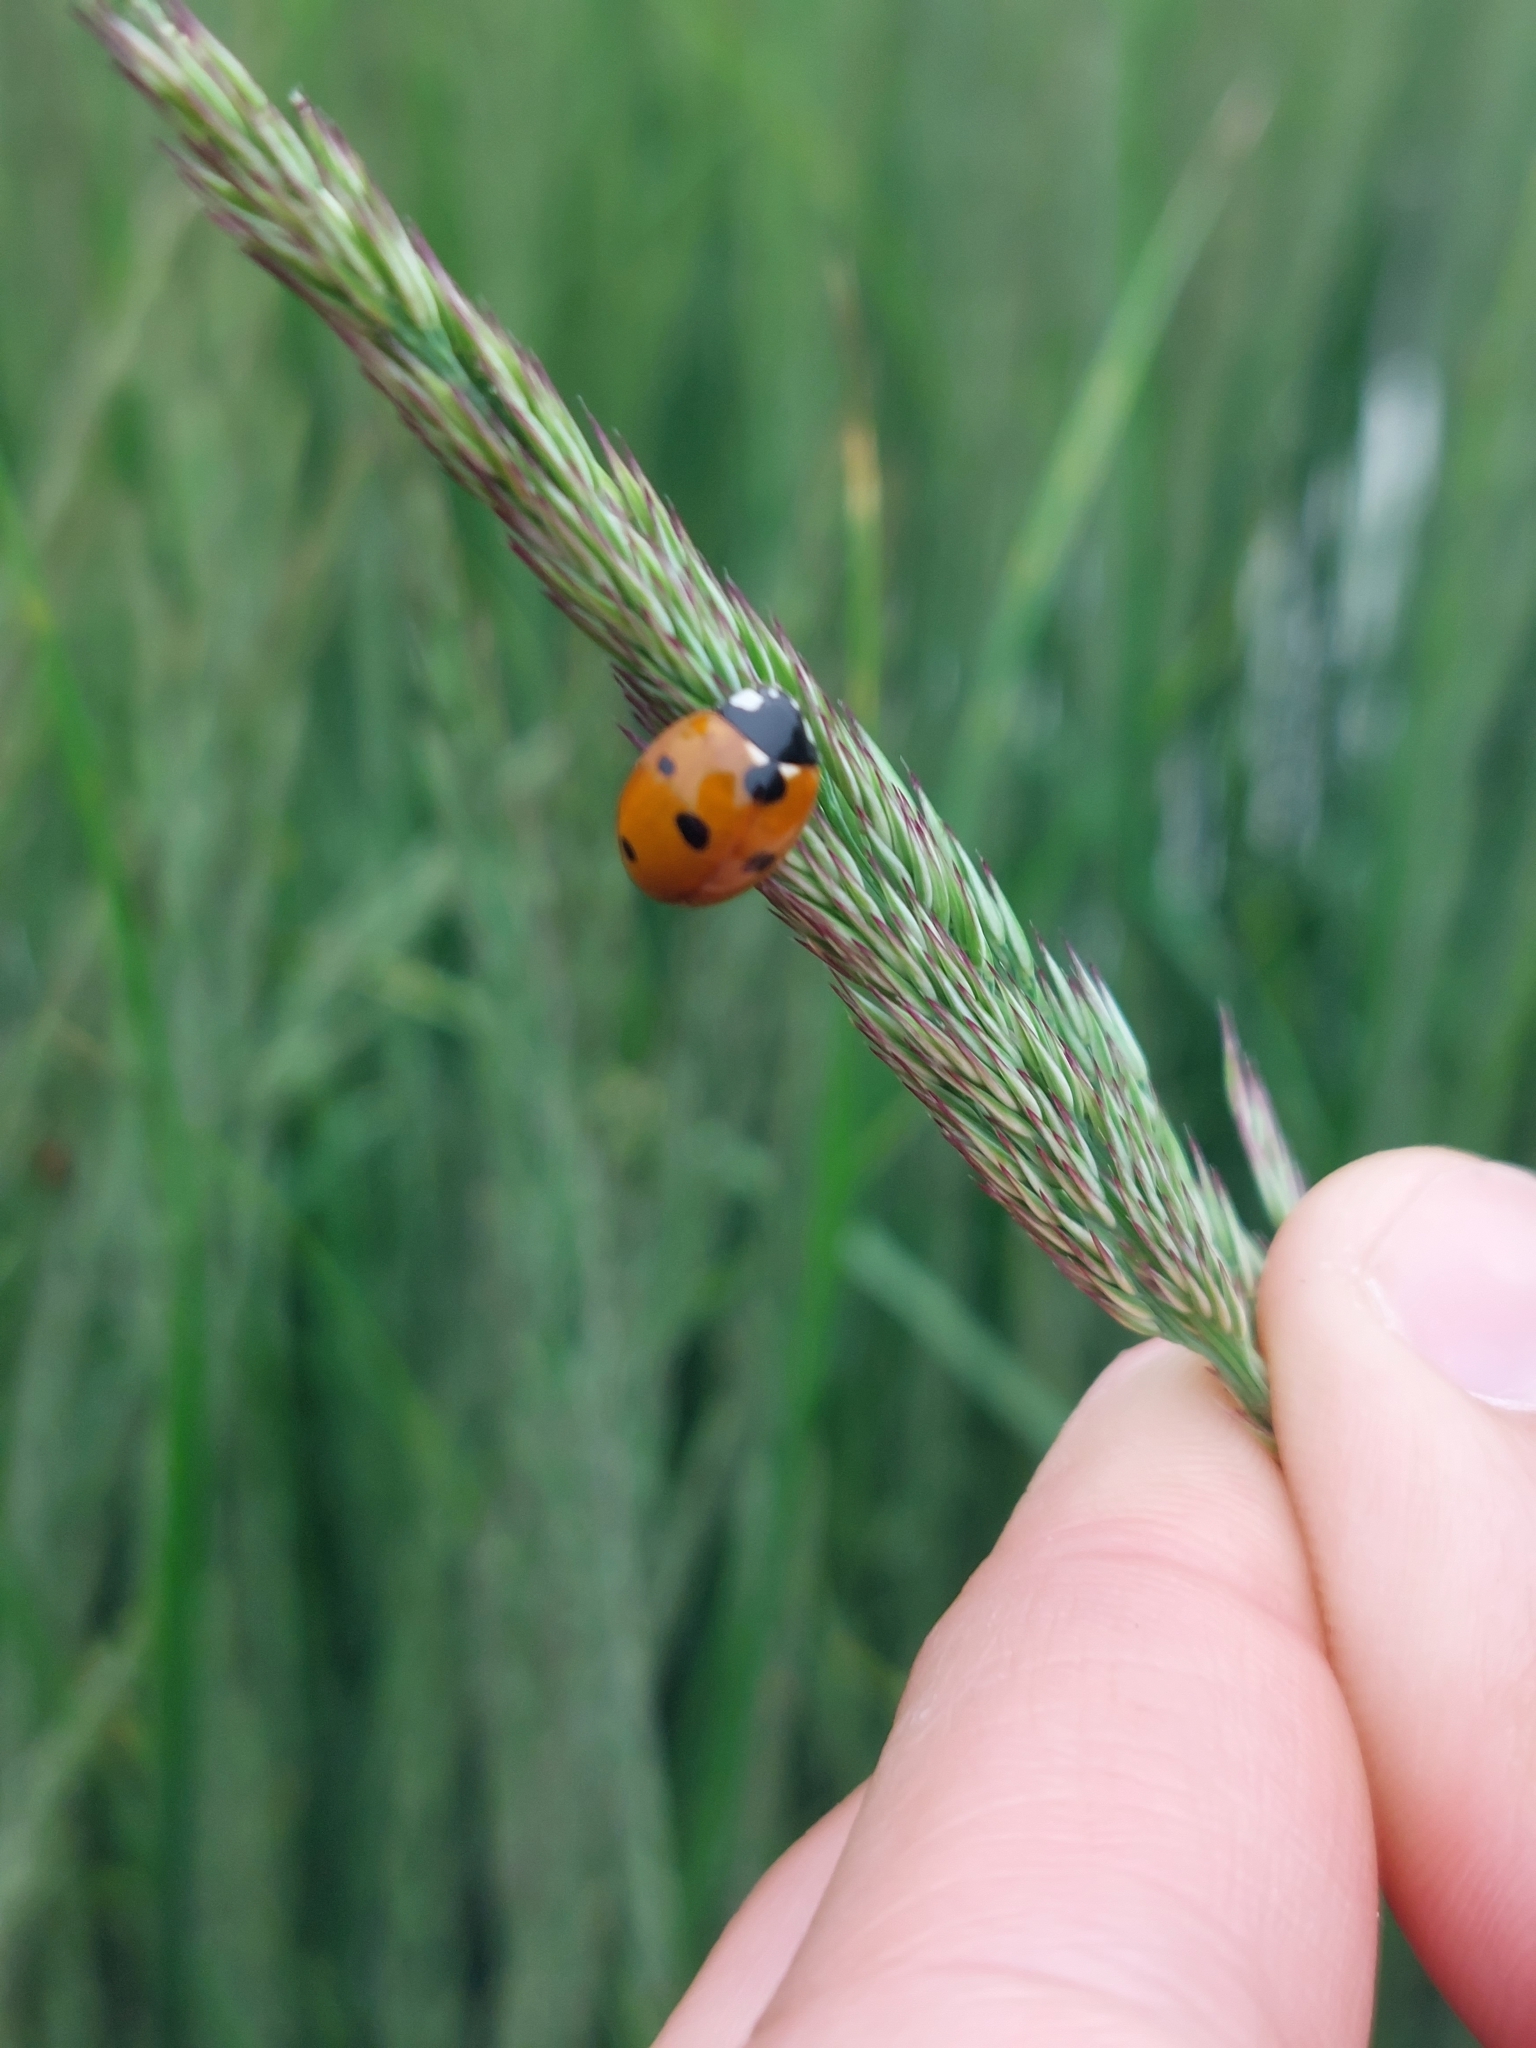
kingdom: Animalia
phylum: Arthropoda
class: Insecta
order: Coleoptera
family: Coccinellidae
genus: Coccinella
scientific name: Coccinella septempunctata
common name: Sevenspotted lady beetle
